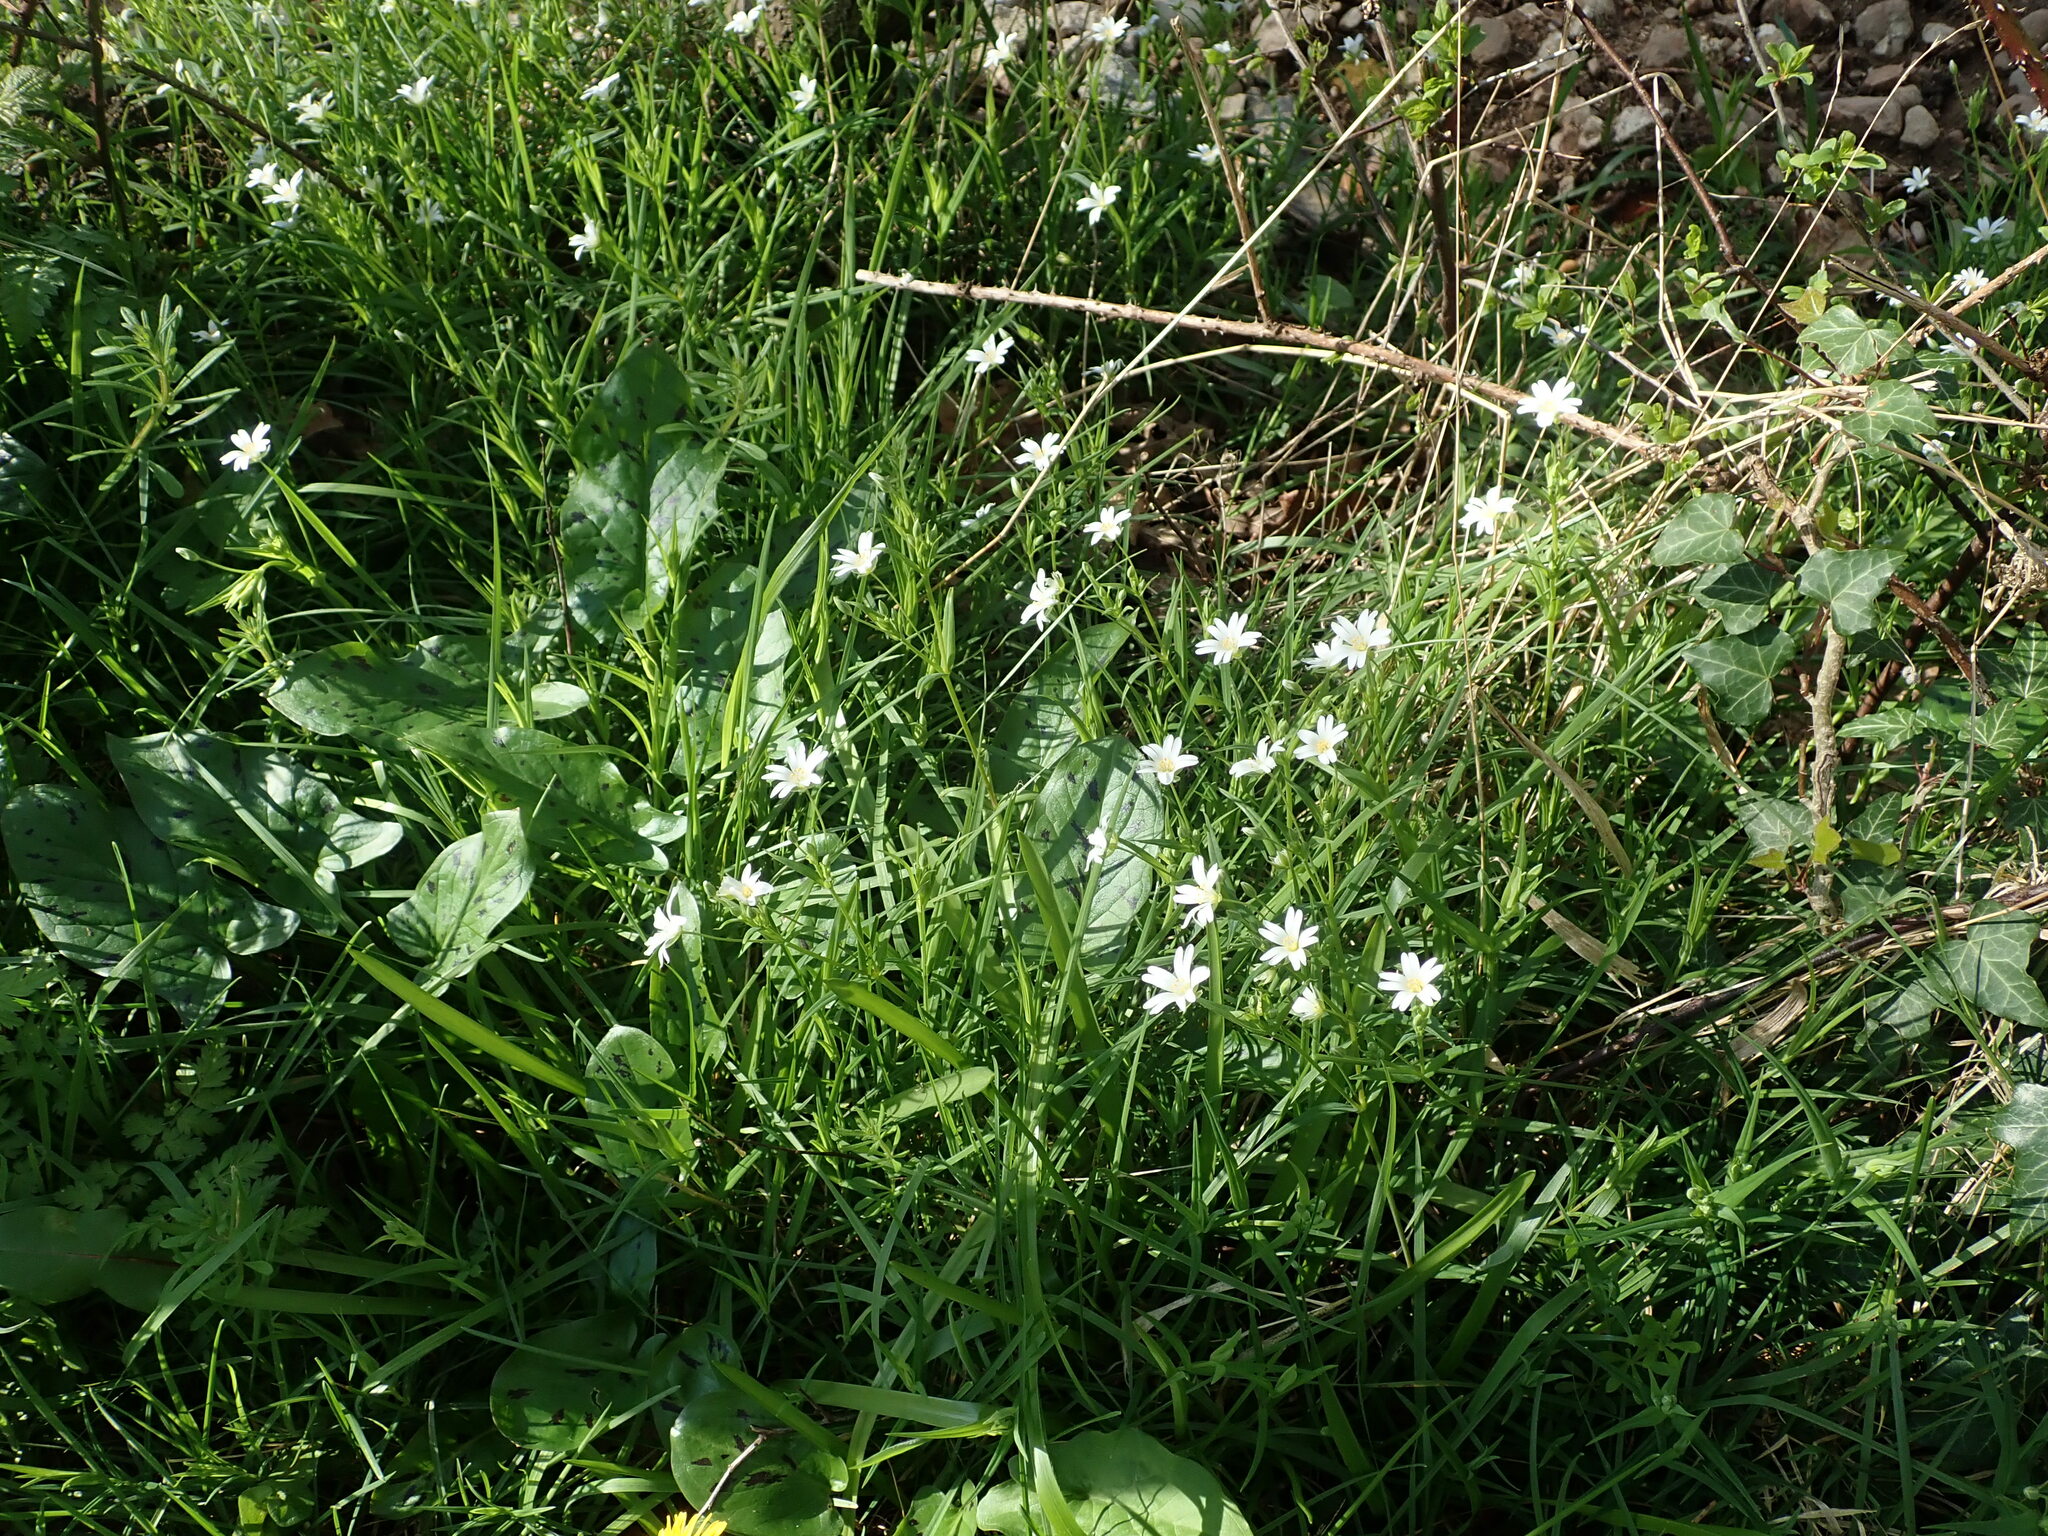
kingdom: Plantae
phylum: Tracheophyta
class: Magnoliopsida
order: Caryophyllales
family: Caryophyllaceae
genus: Rabelera
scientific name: Rabelera holostea
